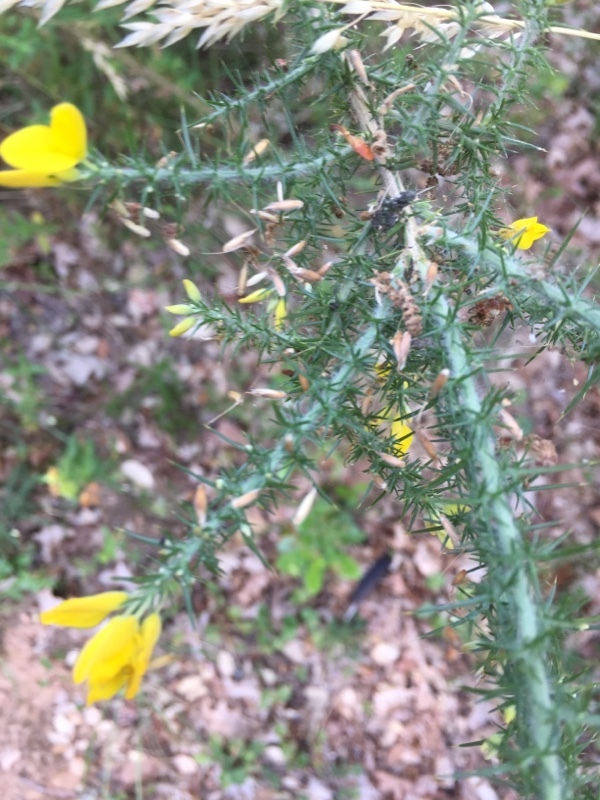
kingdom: Plantae
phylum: Tracheophyta
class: Magnoliopsida
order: Fabales
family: Fabaceae
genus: Ulex
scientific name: Ulex minor
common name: Dwarf gorse
